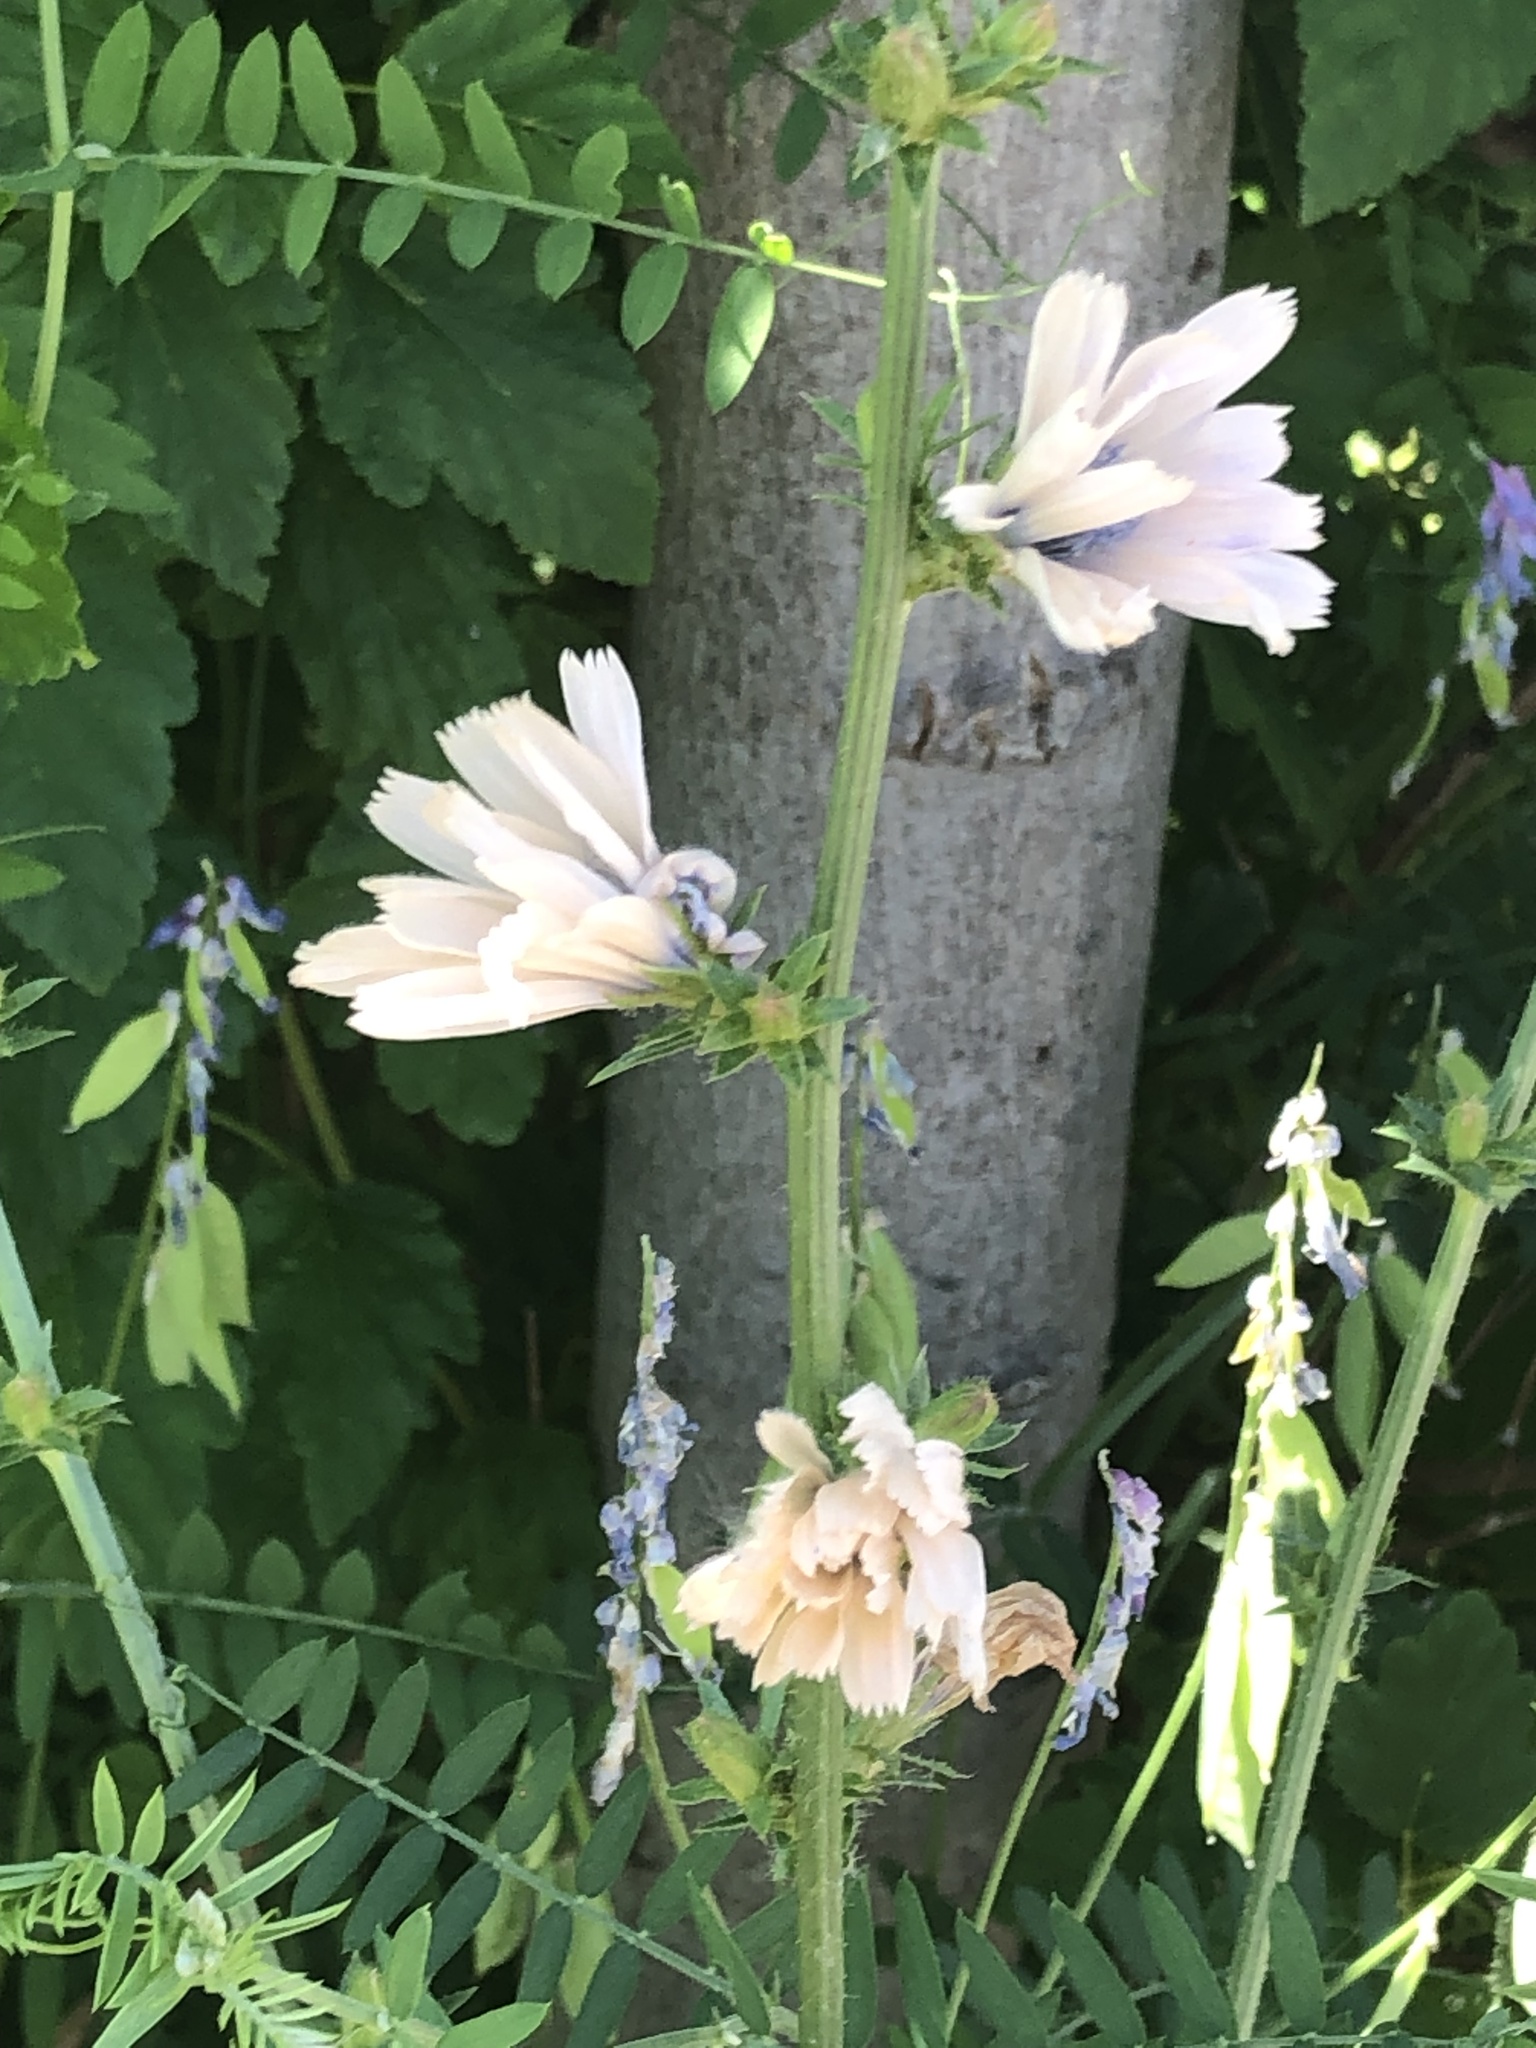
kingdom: Plantae
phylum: Tracheophyta
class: Magnoliopsida
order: Asterales
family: Asteraceae
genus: Cichorium
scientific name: Cichorium intybus
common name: Chicory
